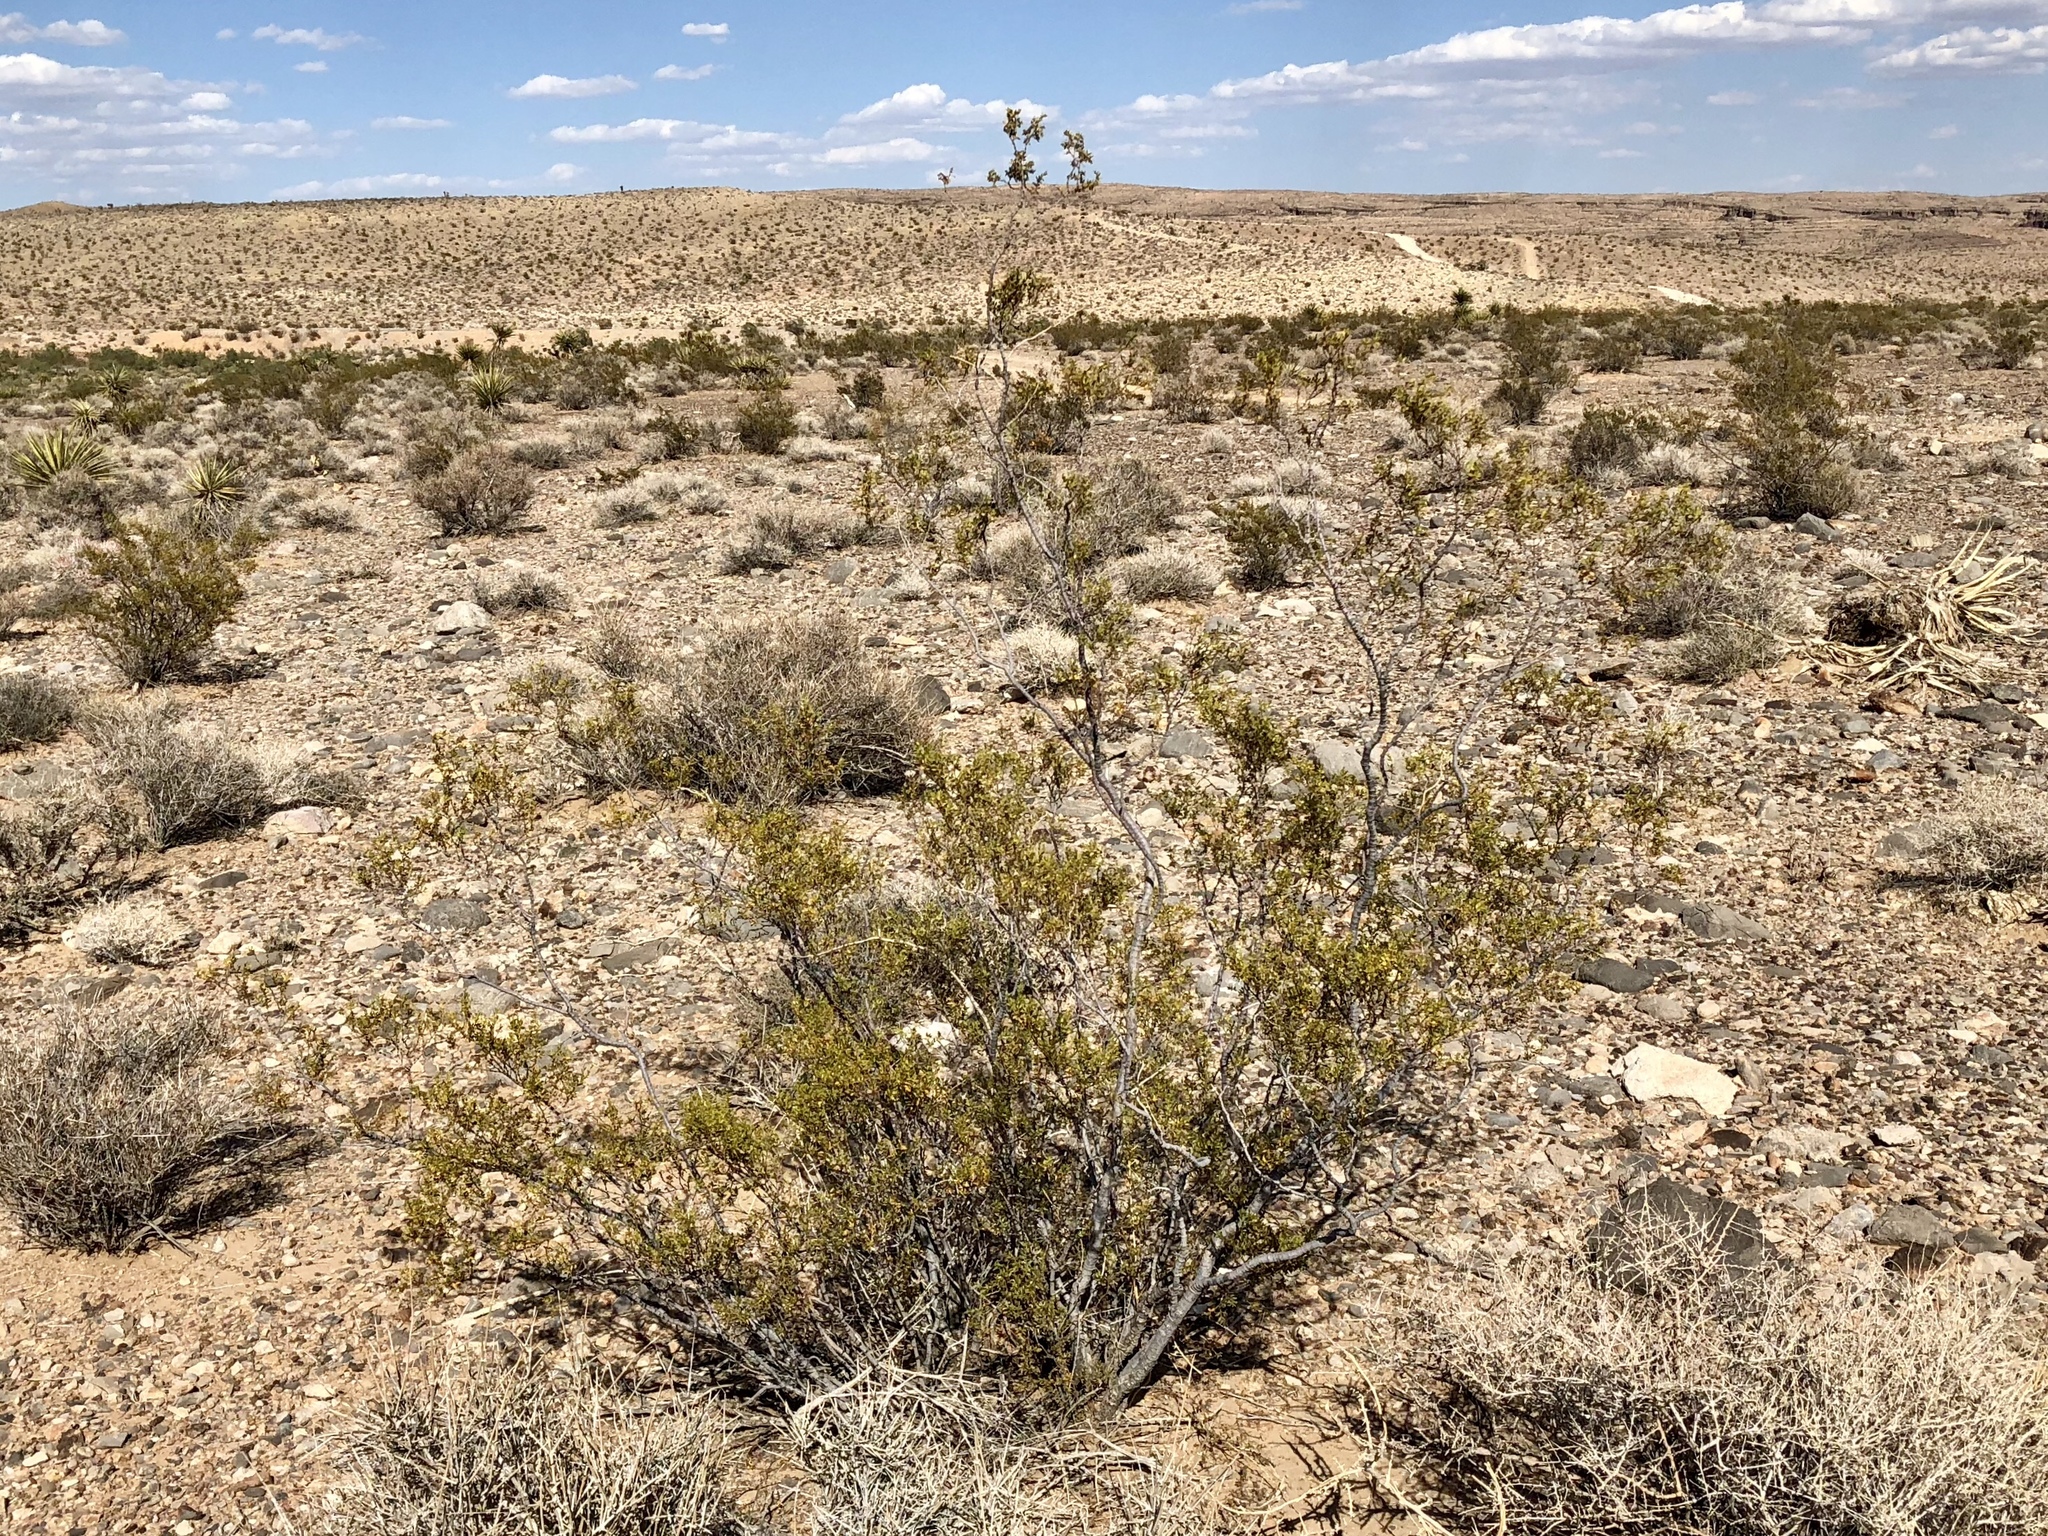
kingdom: Plantae
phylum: Tracheophyta
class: Magnoliopsida
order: Zygophyllales
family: Zygophyllaceae
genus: Larrea
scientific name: Larrea tridentata
